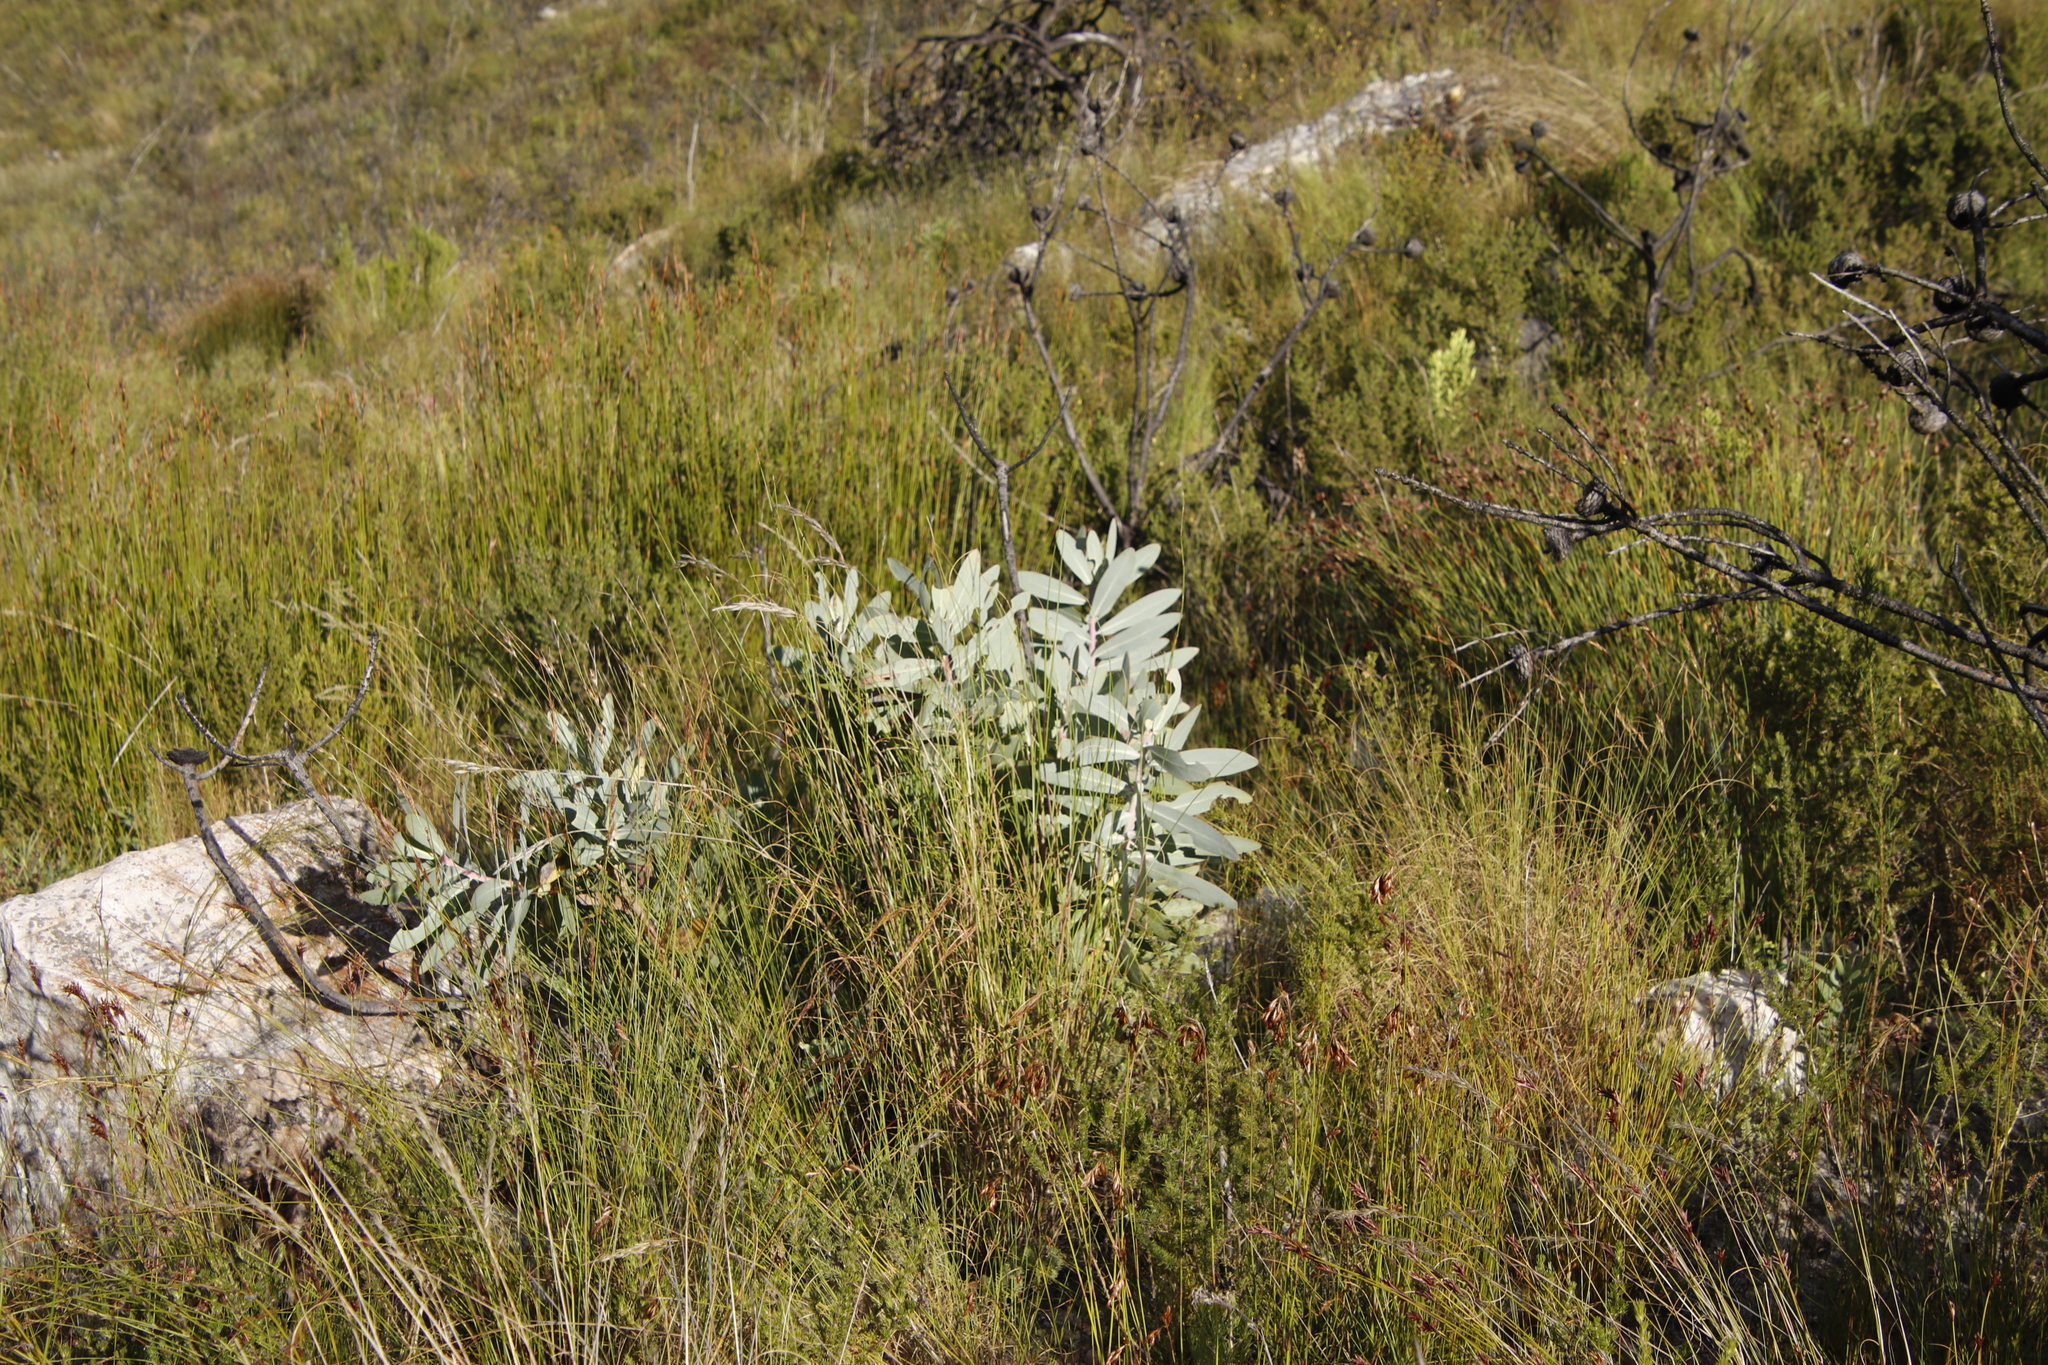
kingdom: Plantae
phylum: Tracheophyta
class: Magnoliopsida
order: Proteales
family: Proteaceae
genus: Protea
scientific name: Protea nitida
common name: Tree protea
